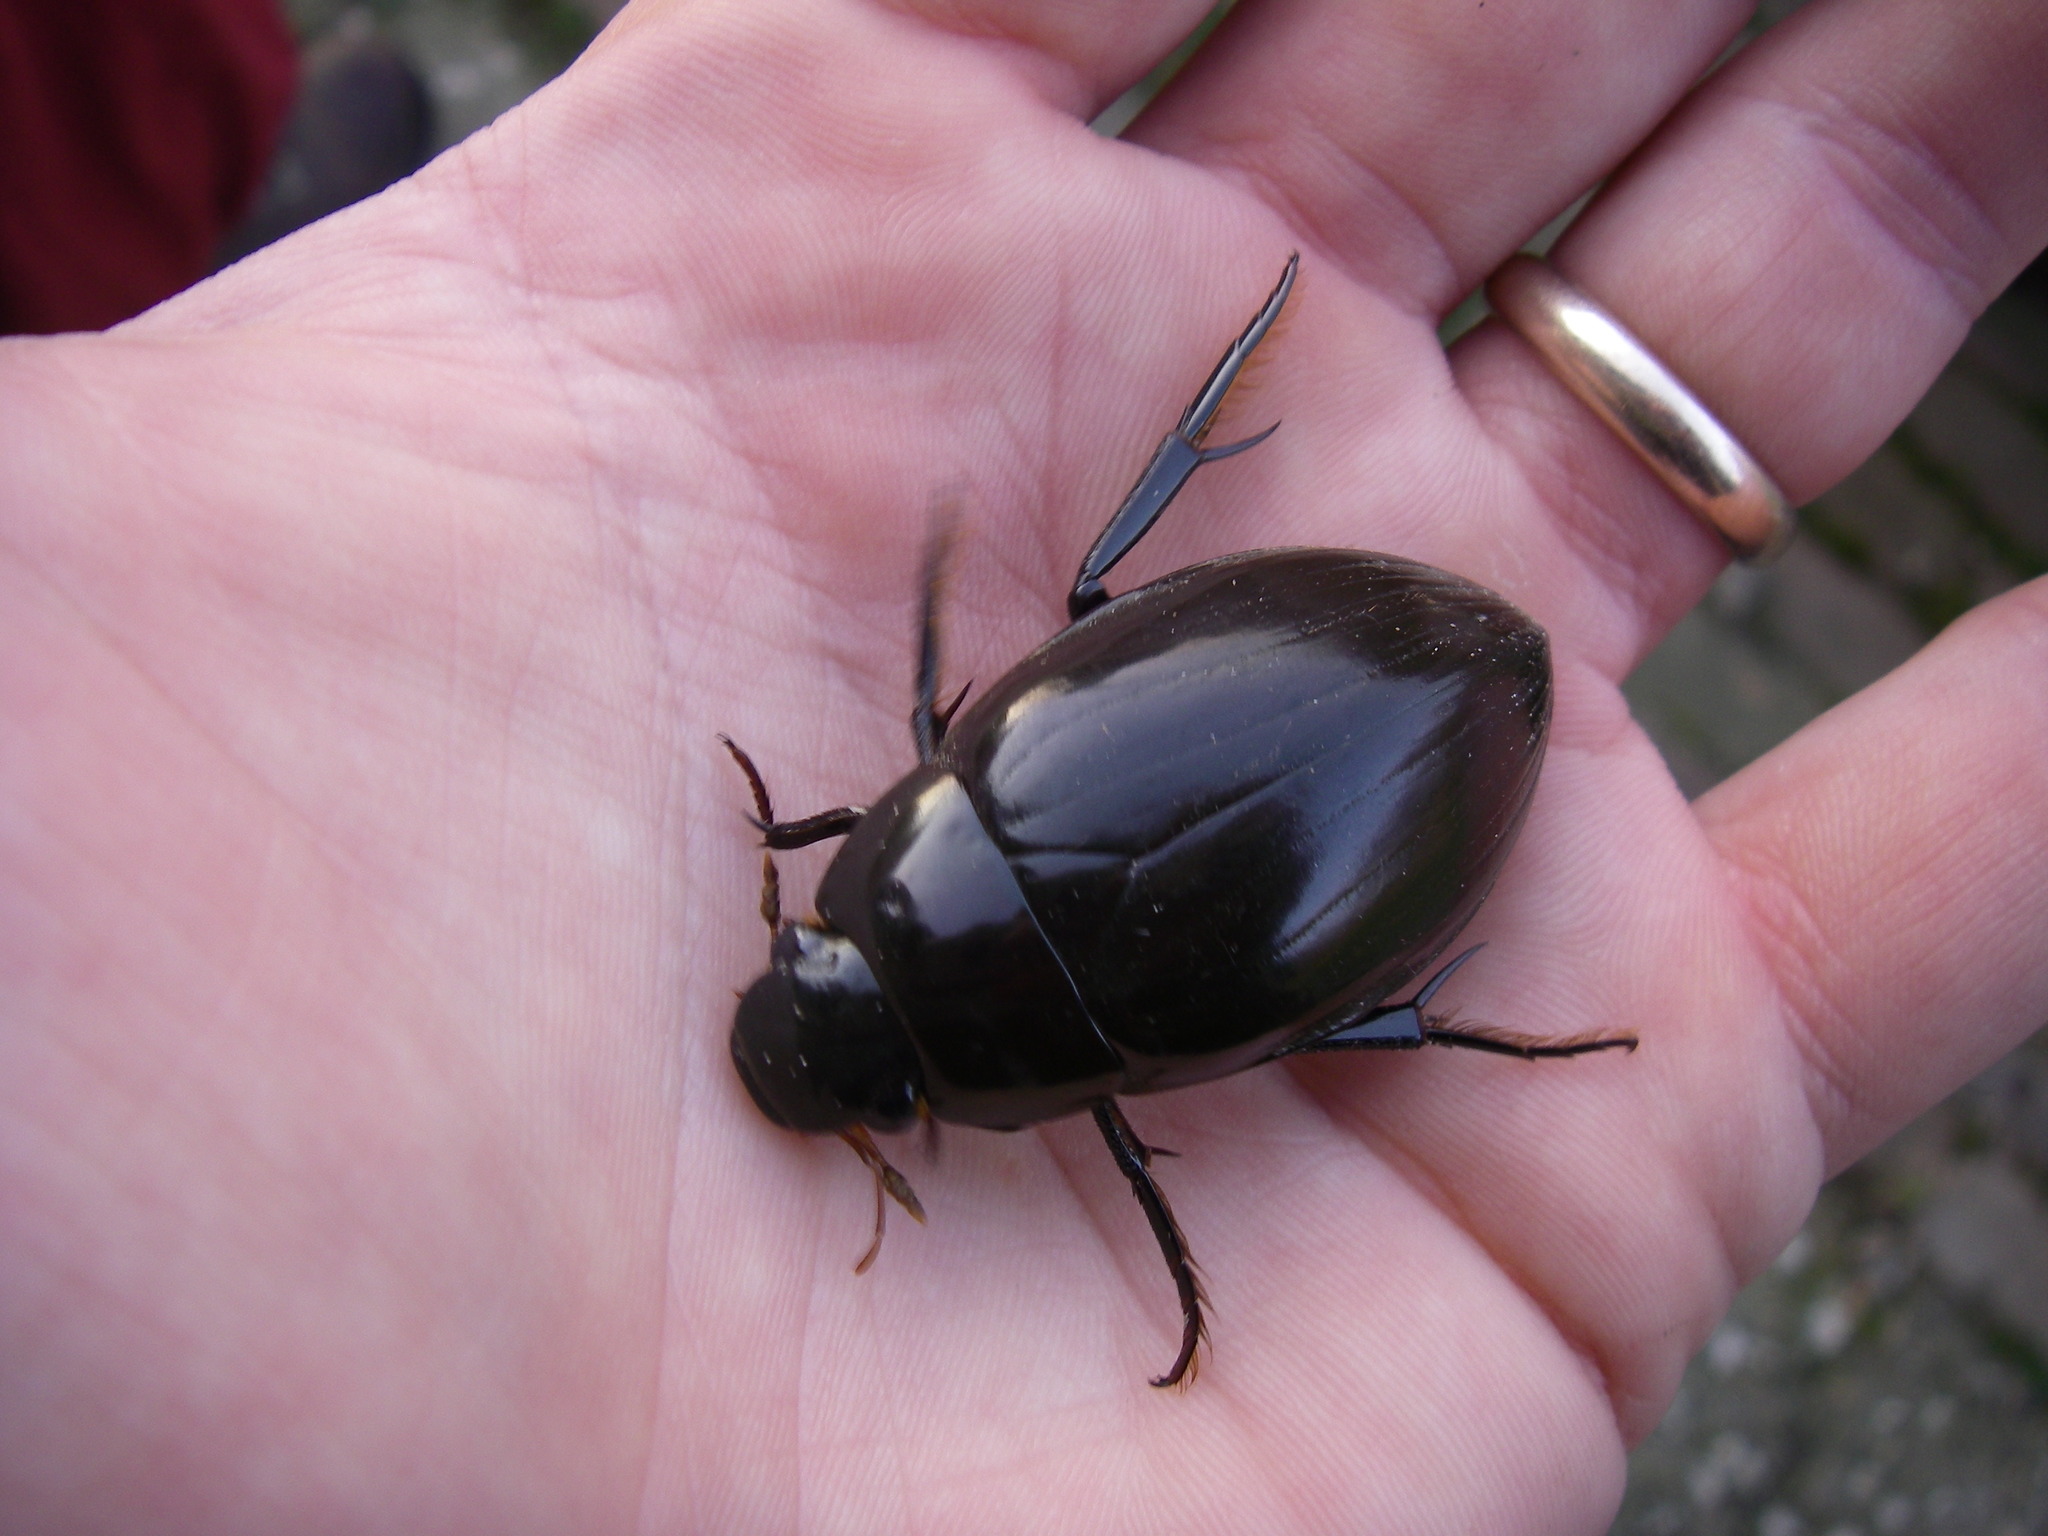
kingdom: Animalia
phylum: Arthropoda
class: Insecta
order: Coleoptera
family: Hydrophilidae
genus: Hydrophilus
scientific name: Hydrophilus piceus
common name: Great silver water beetle
